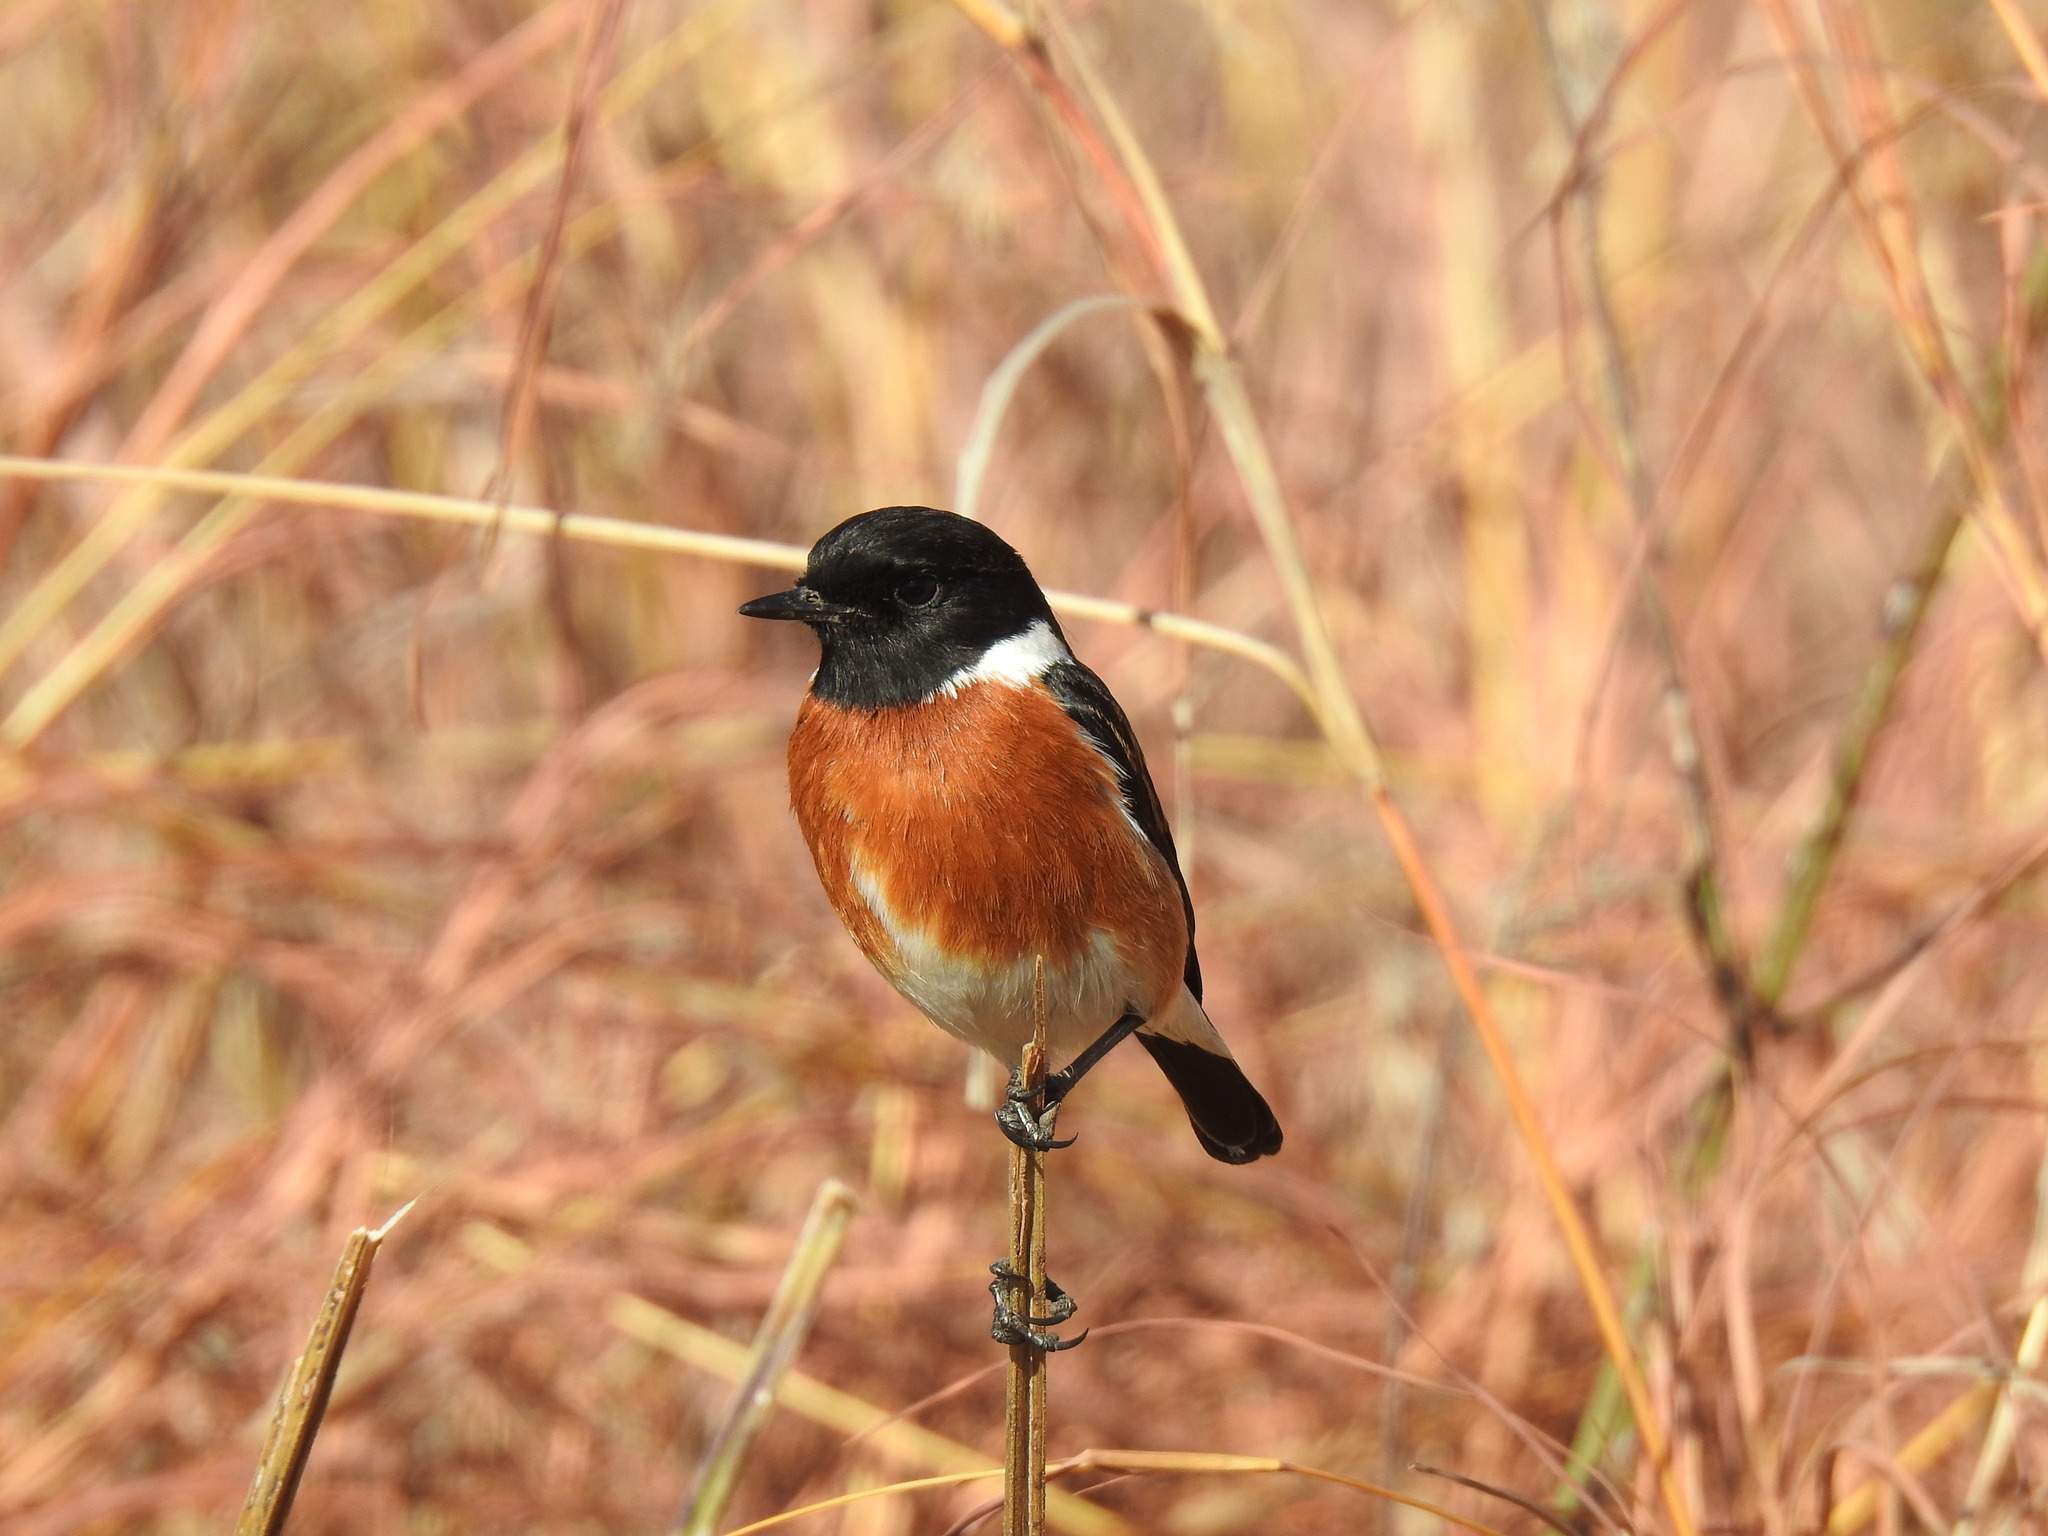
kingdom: Animalia
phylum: Chordata
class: Aves
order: Passeriformes
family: Muscicapidae
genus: Saxicola
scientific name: Saxicola torquatus
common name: African stonechat
